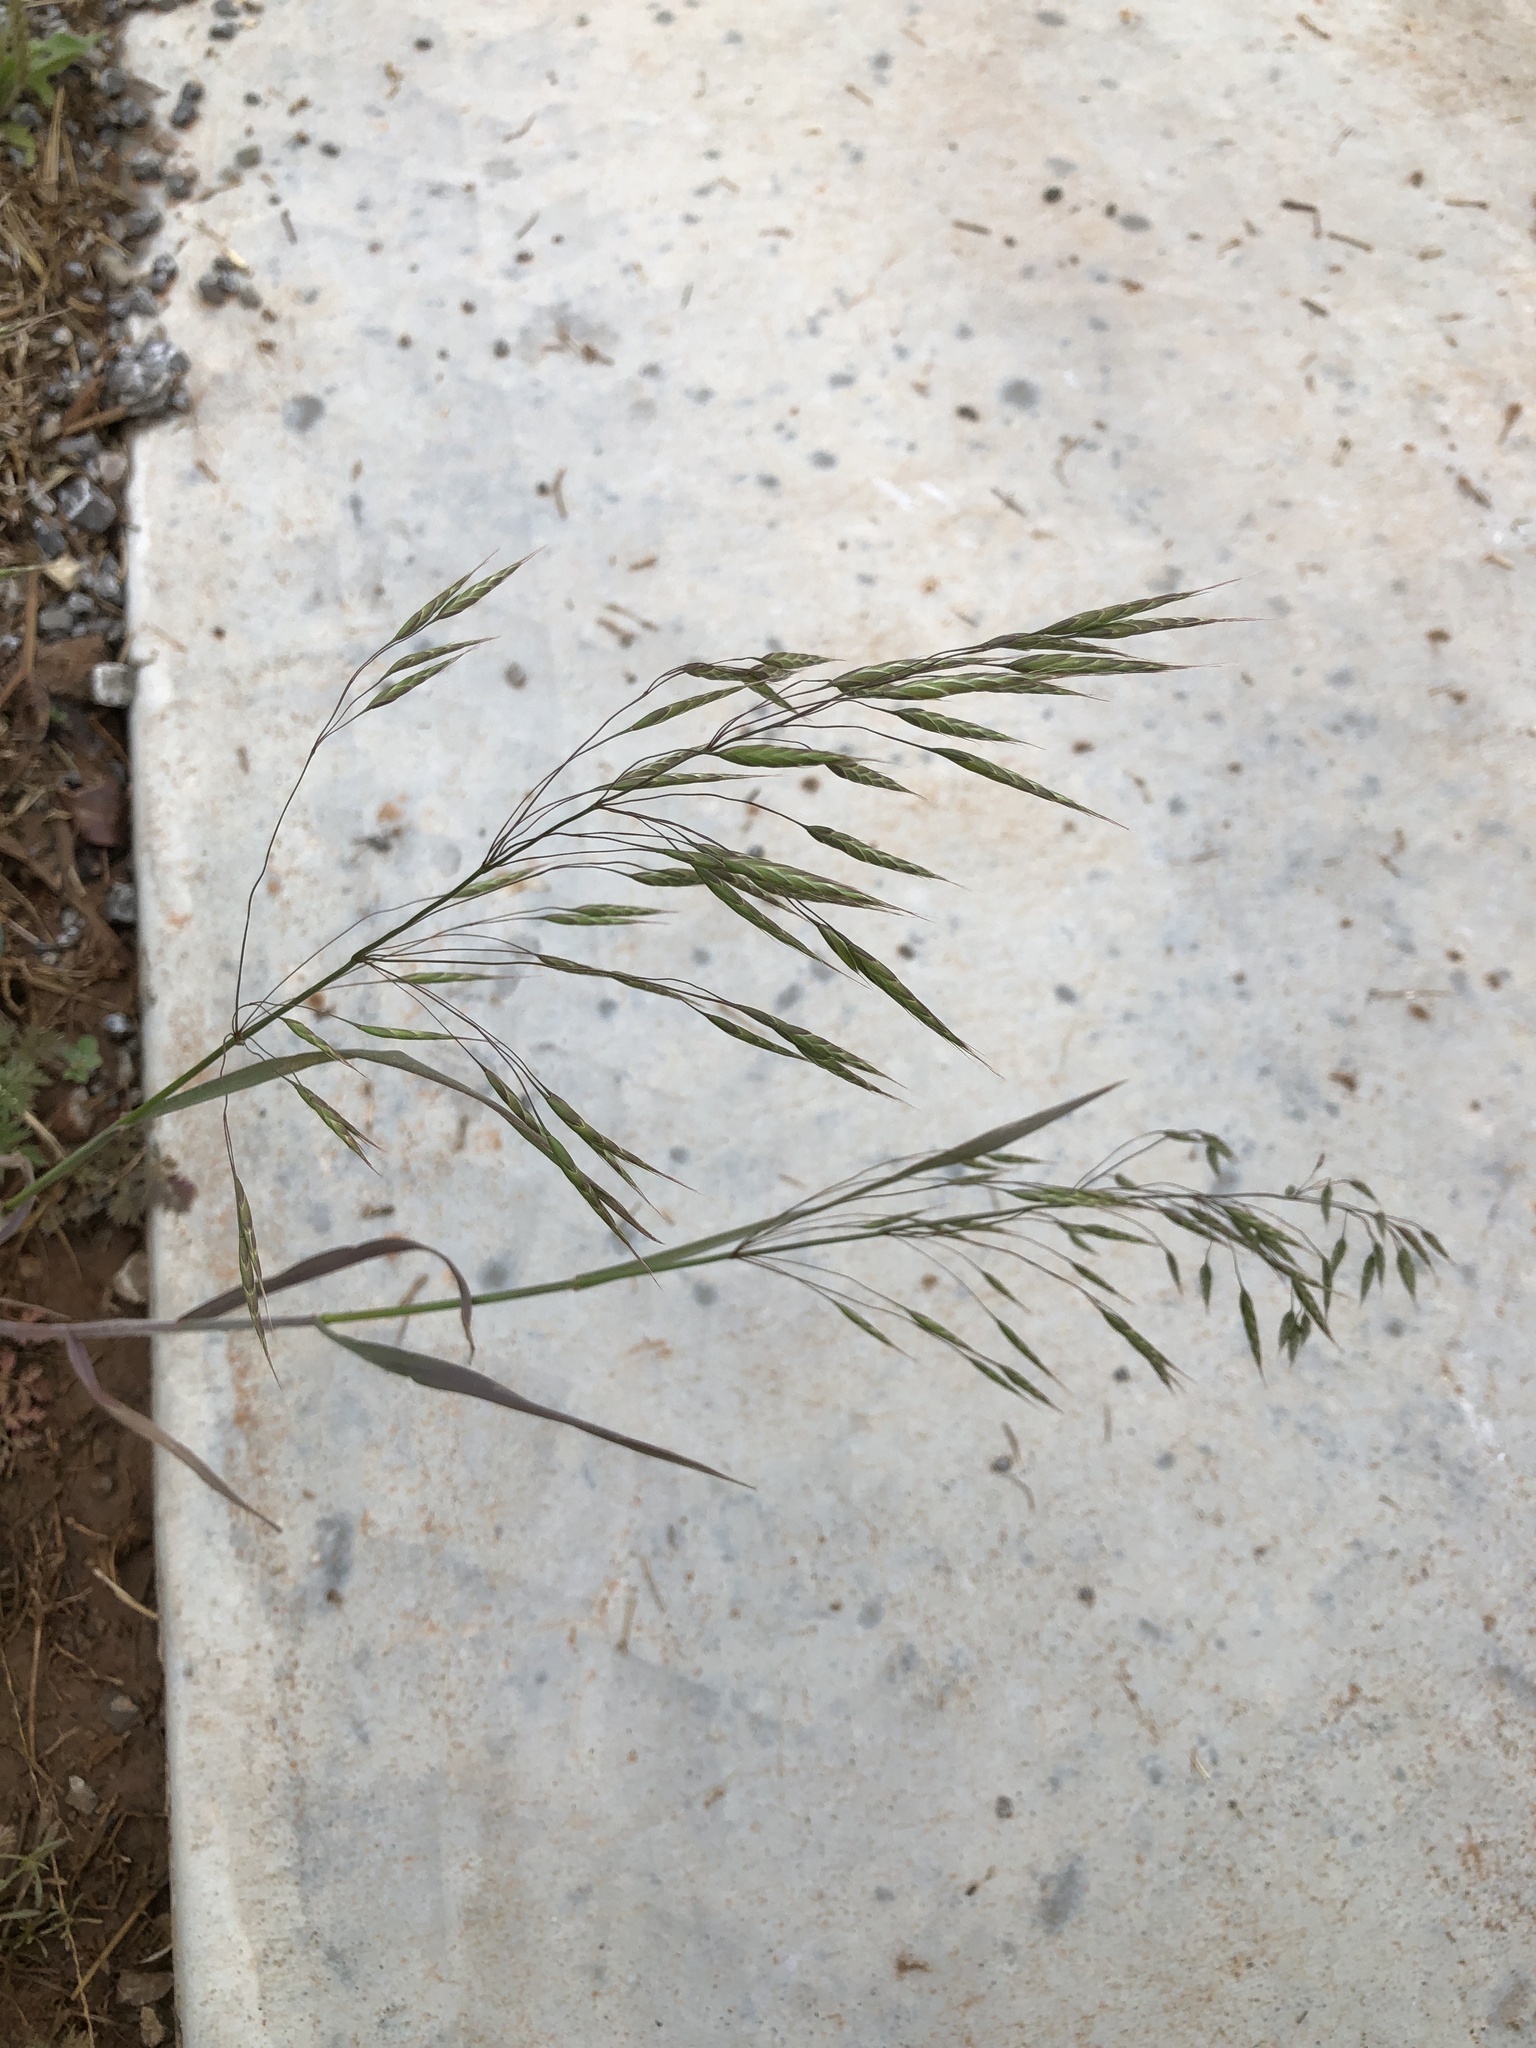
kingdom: Plantae
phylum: Tracheophyta
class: Liliopsida
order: Poales
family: Poaceae
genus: Bromus
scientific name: Bromus japonicus
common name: Japanese brome
